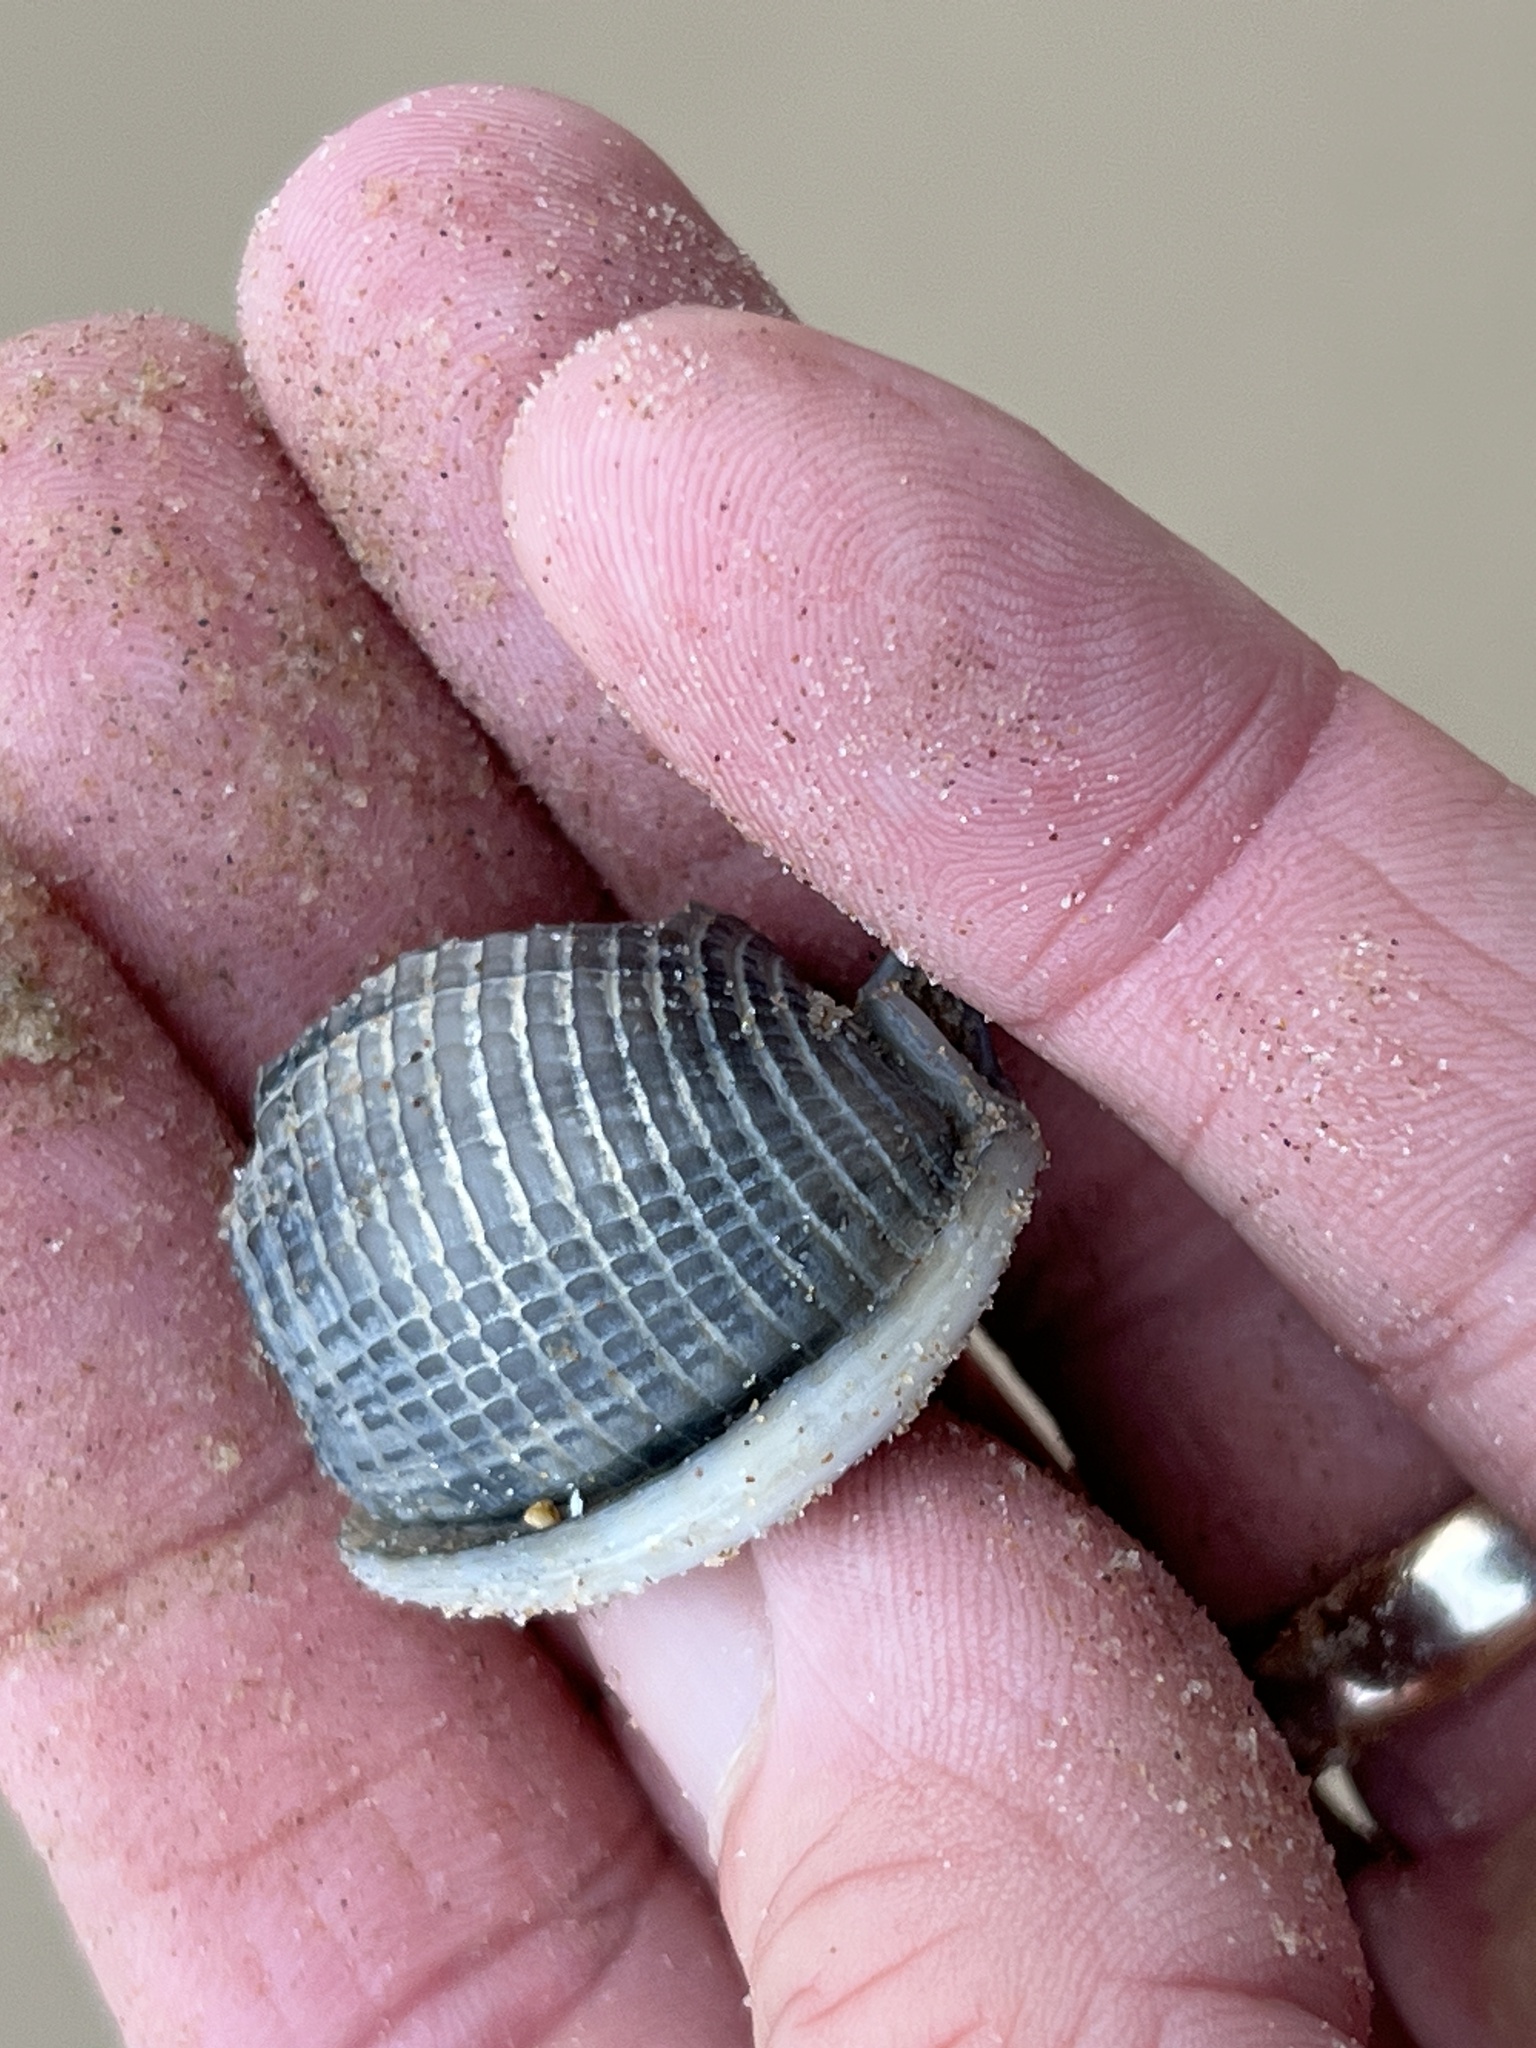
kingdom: Animalia
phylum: Mollusca
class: Gastropoda
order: Littorinimorpha
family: Cassidae
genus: Semicassis
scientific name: Semicassis granulata
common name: Scotch bonnet
